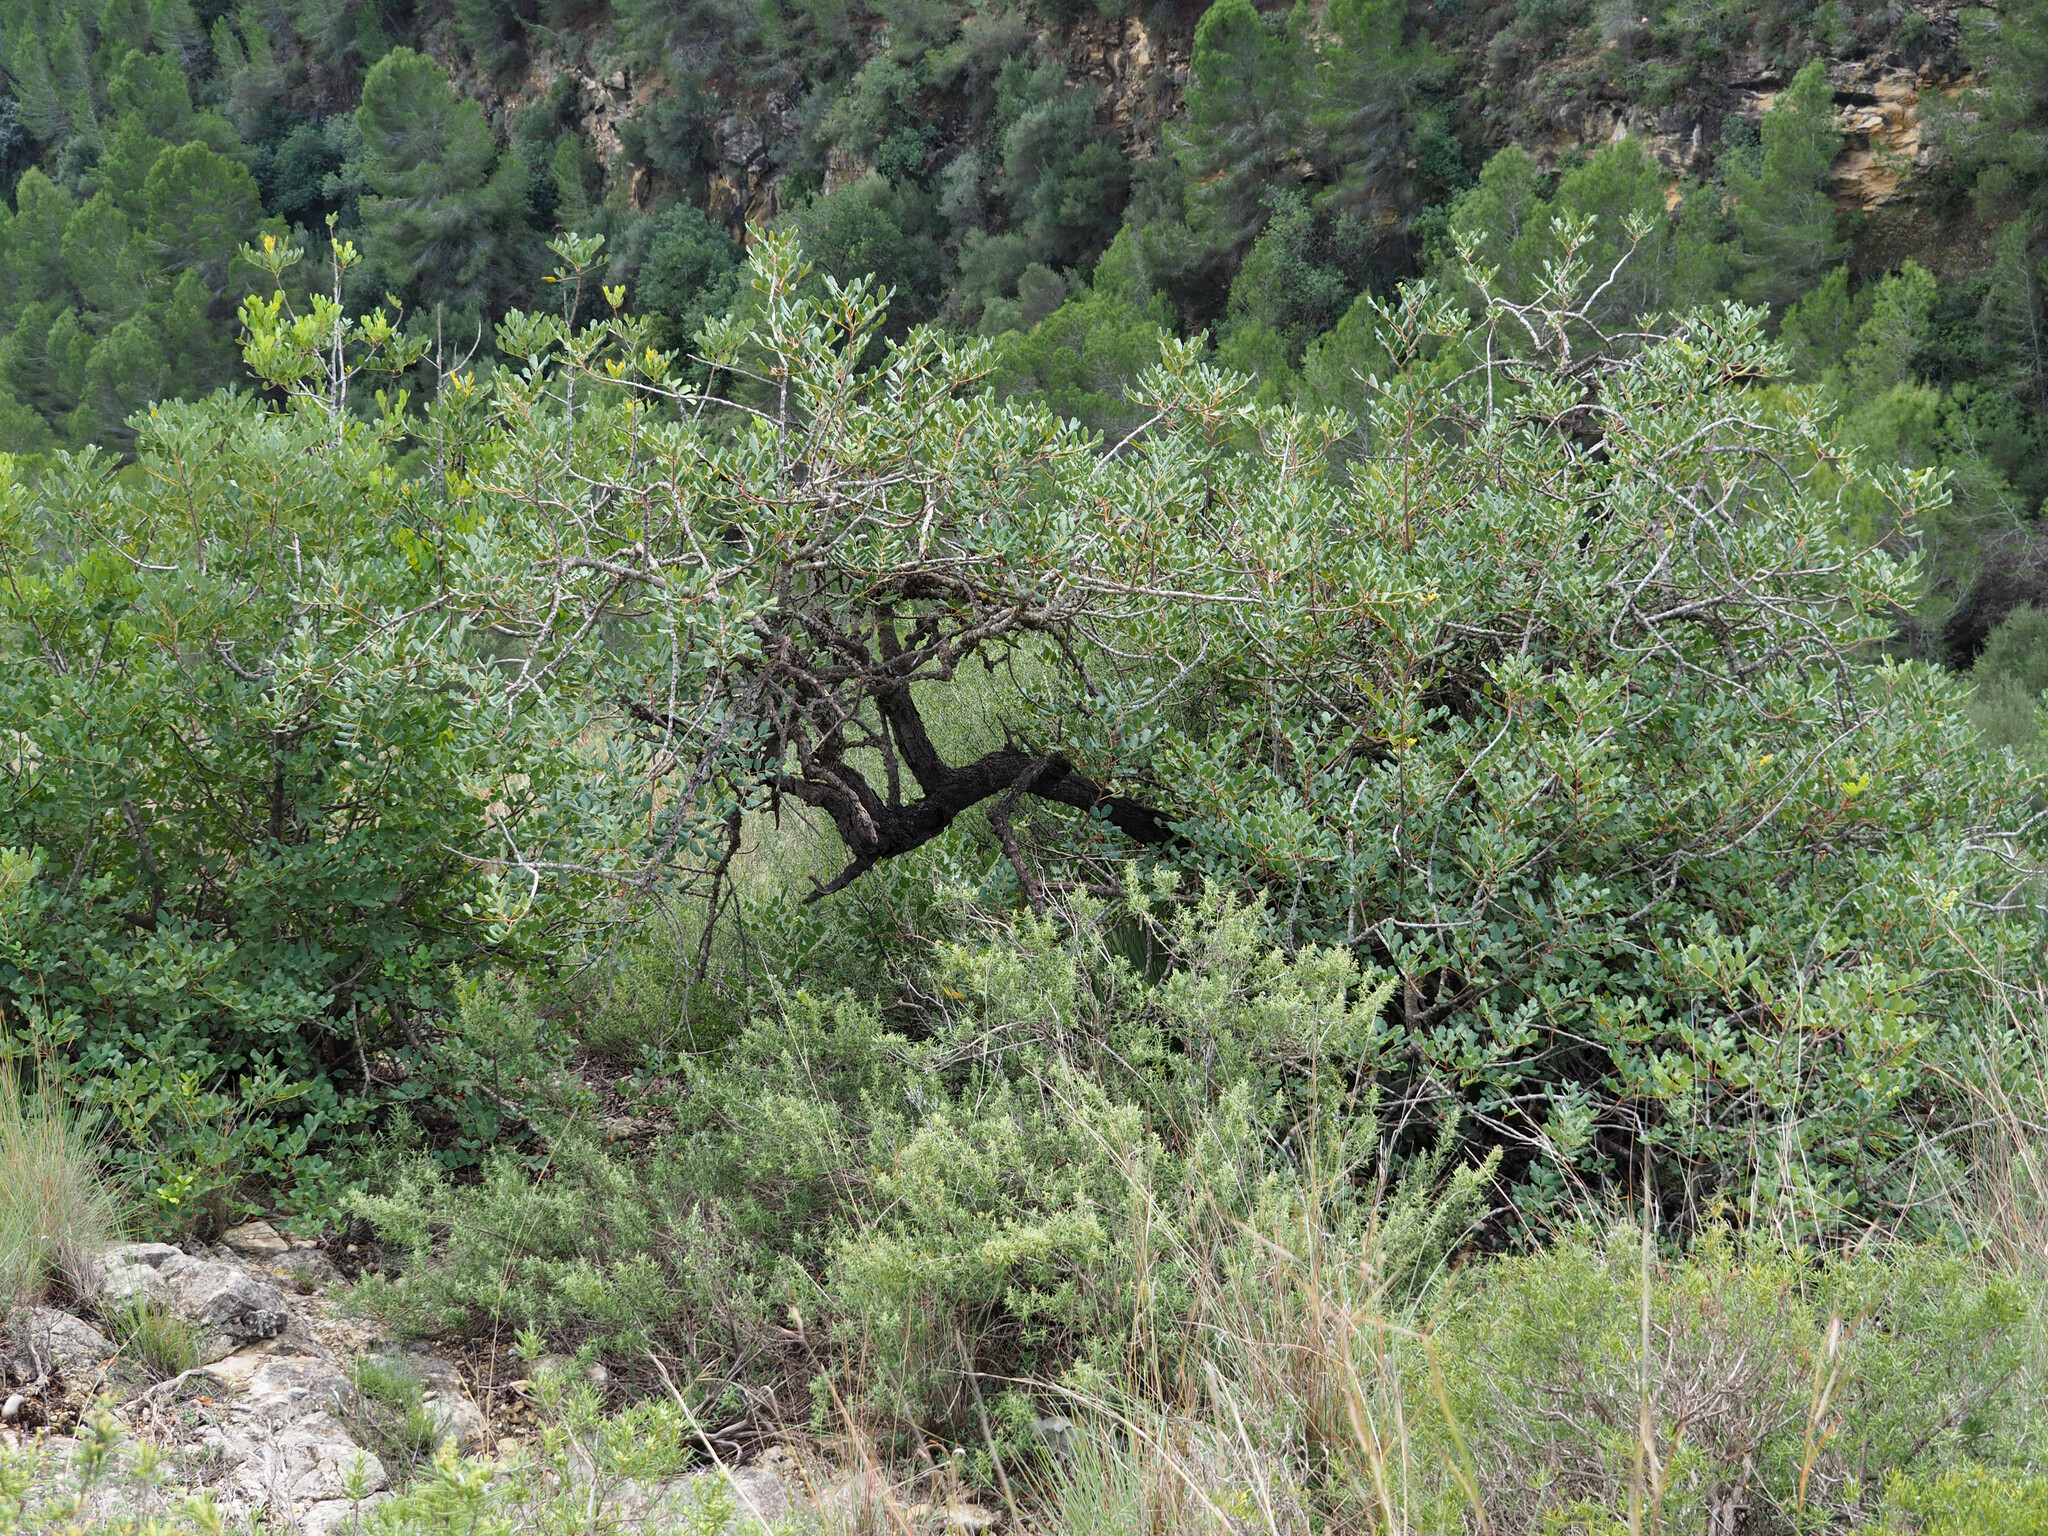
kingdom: Plantae
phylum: Tracheophyta
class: Magnoliopsida
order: Fabales
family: Fabaceae
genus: Ceratonia
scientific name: Ceratonia siliqua
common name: Carob
